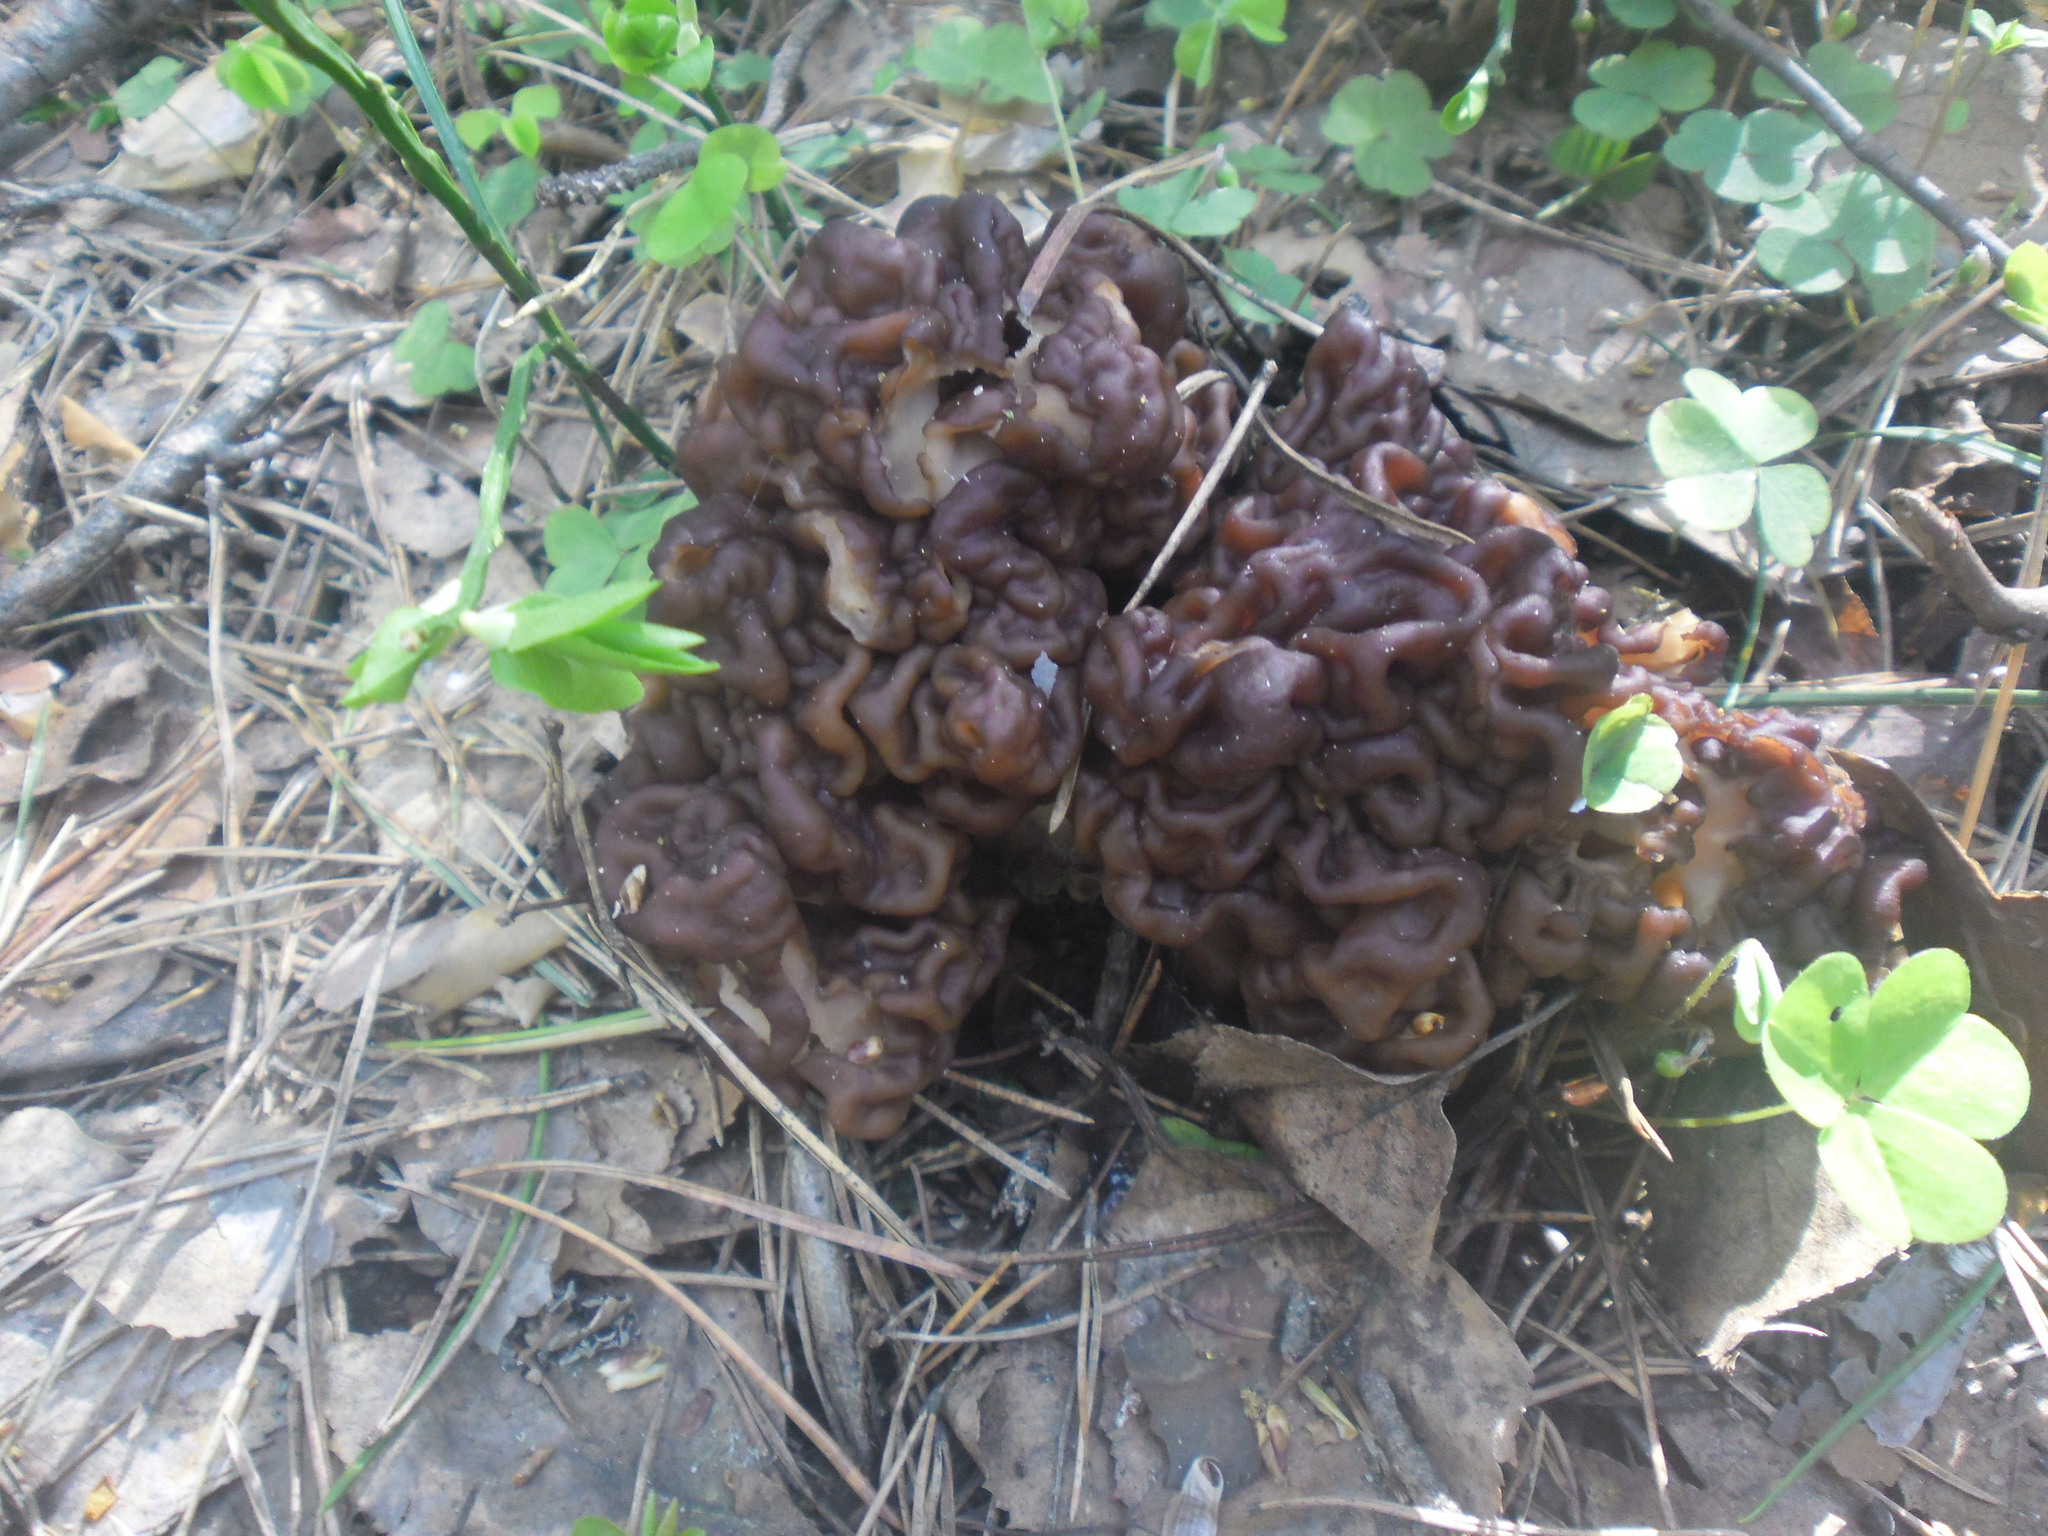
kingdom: Fungi
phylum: Ascomycota
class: Pezizomycetes
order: Pezizales
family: Discinaceae
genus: Gyromitra
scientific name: Gyromitra esculenta
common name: False morel
